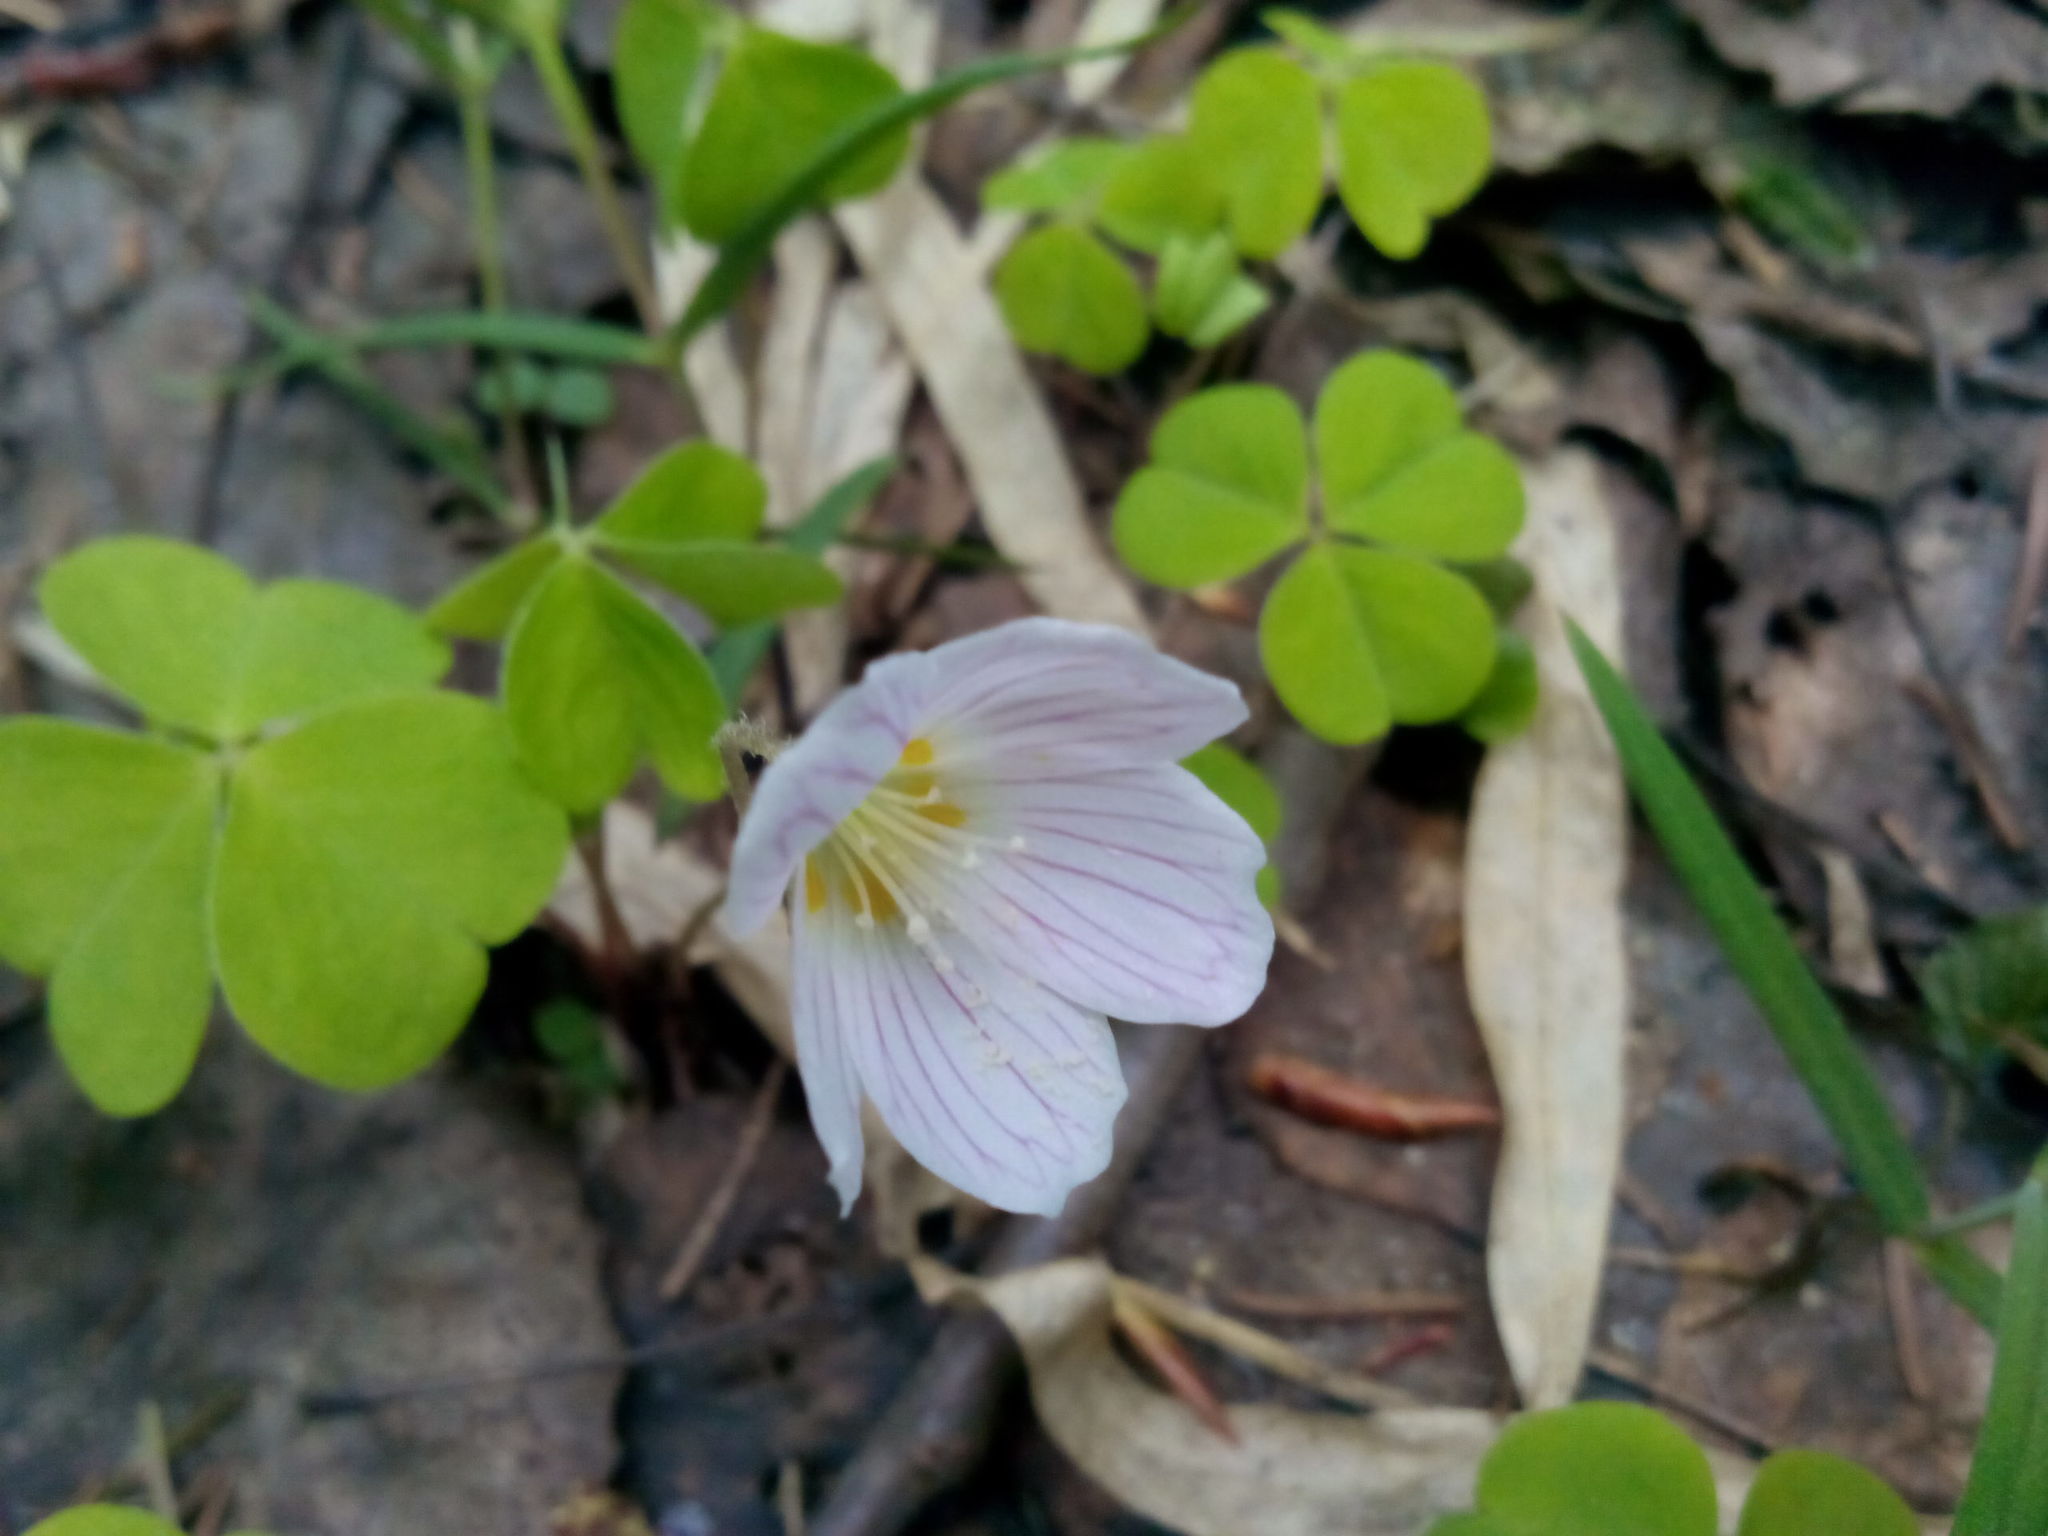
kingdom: Plantae
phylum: Tracheophyta
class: Magnoliopsida
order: Oxalidales
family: Oxalidaceae
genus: Oxalis
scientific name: Oxalis acetosella
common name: Wood-sorrel
